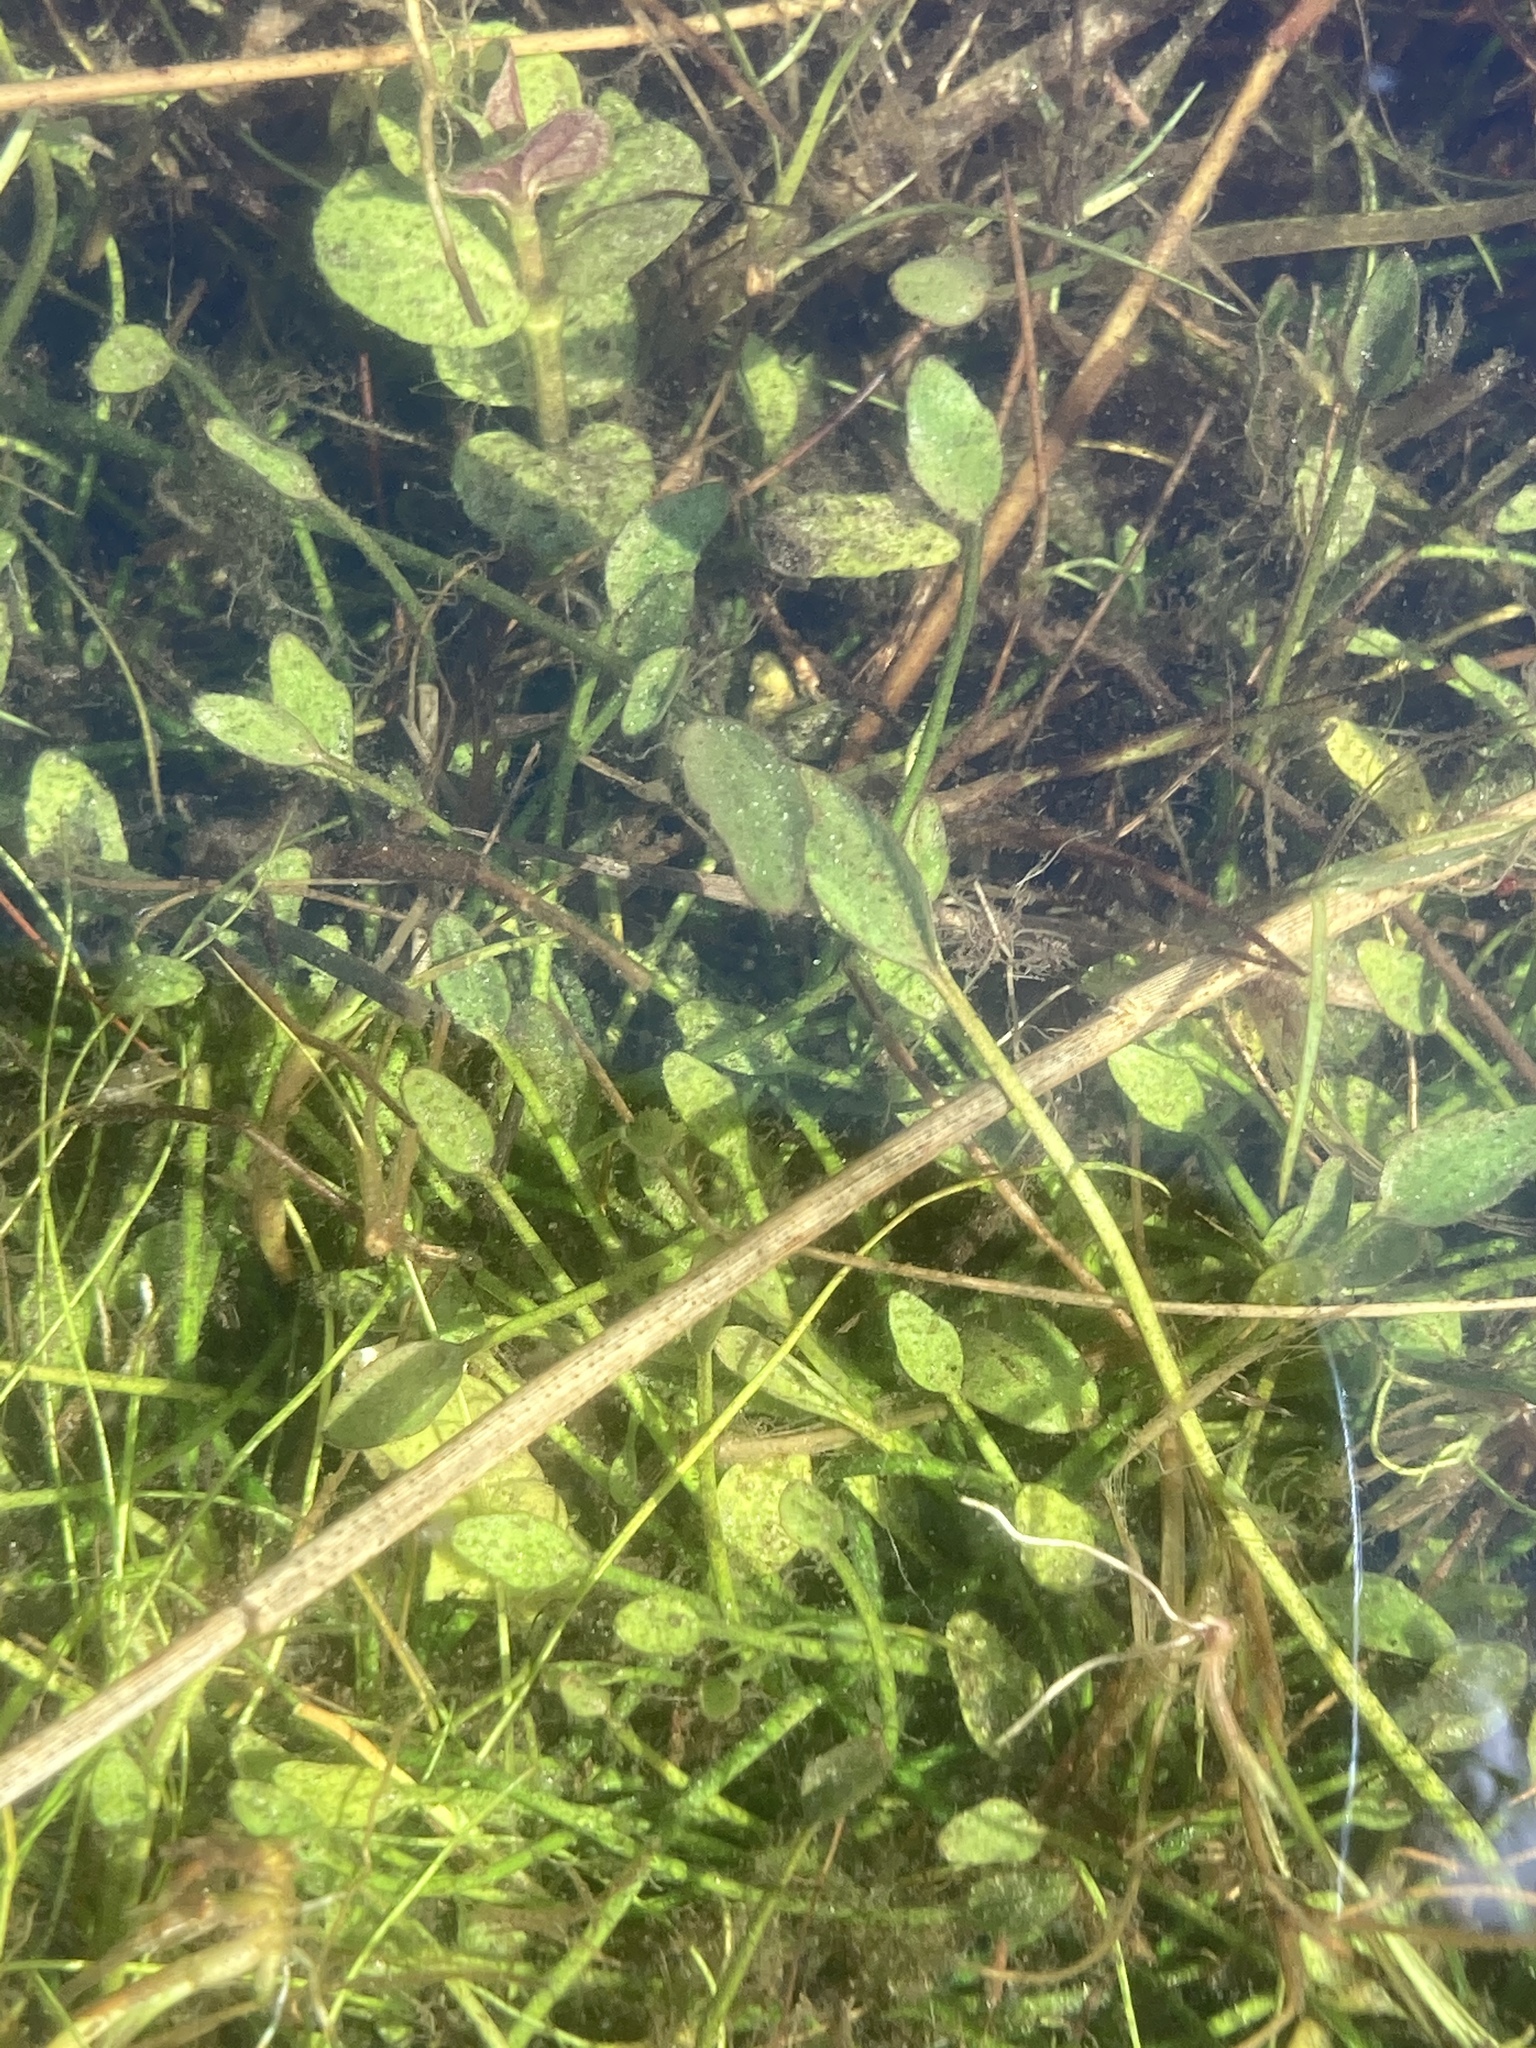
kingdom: Plantae
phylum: Tracheophyta
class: Magnoliopsida
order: Lamiales
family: Scrophulariaceae
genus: Limosella
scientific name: Limosella aquatica
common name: Mudwort
